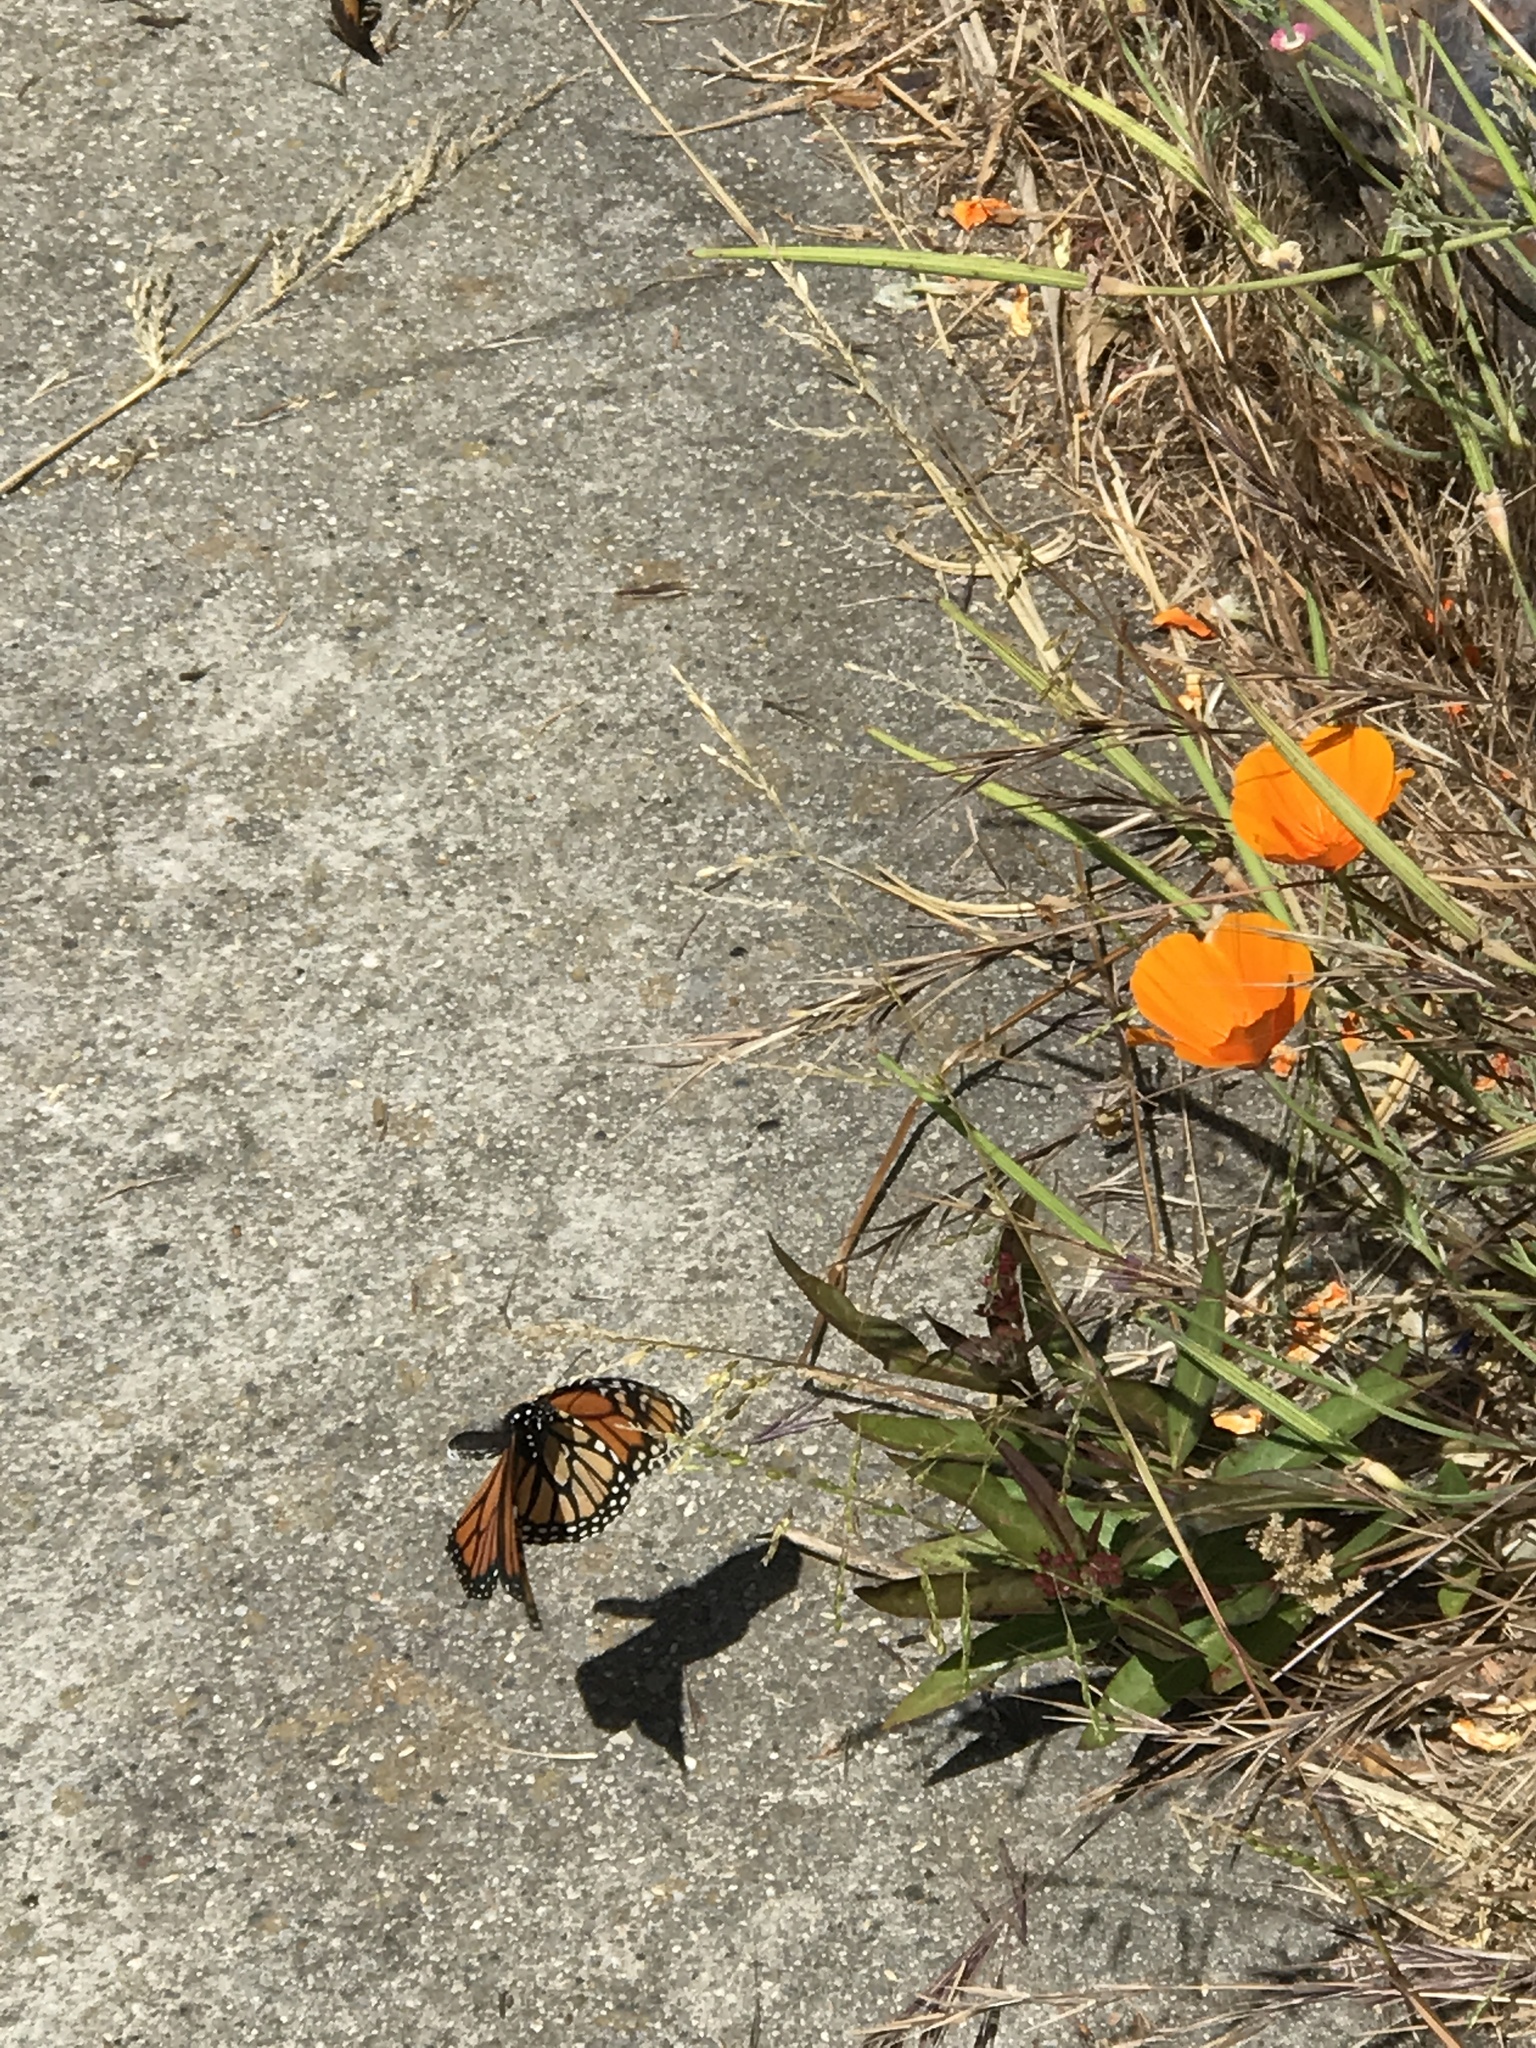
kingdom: Animalia
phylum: Arthropoda
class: Insecta
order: Lepidoptera
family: Nymphalidae
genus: Danaus
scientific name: Danaus plexippus
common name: Monarch
